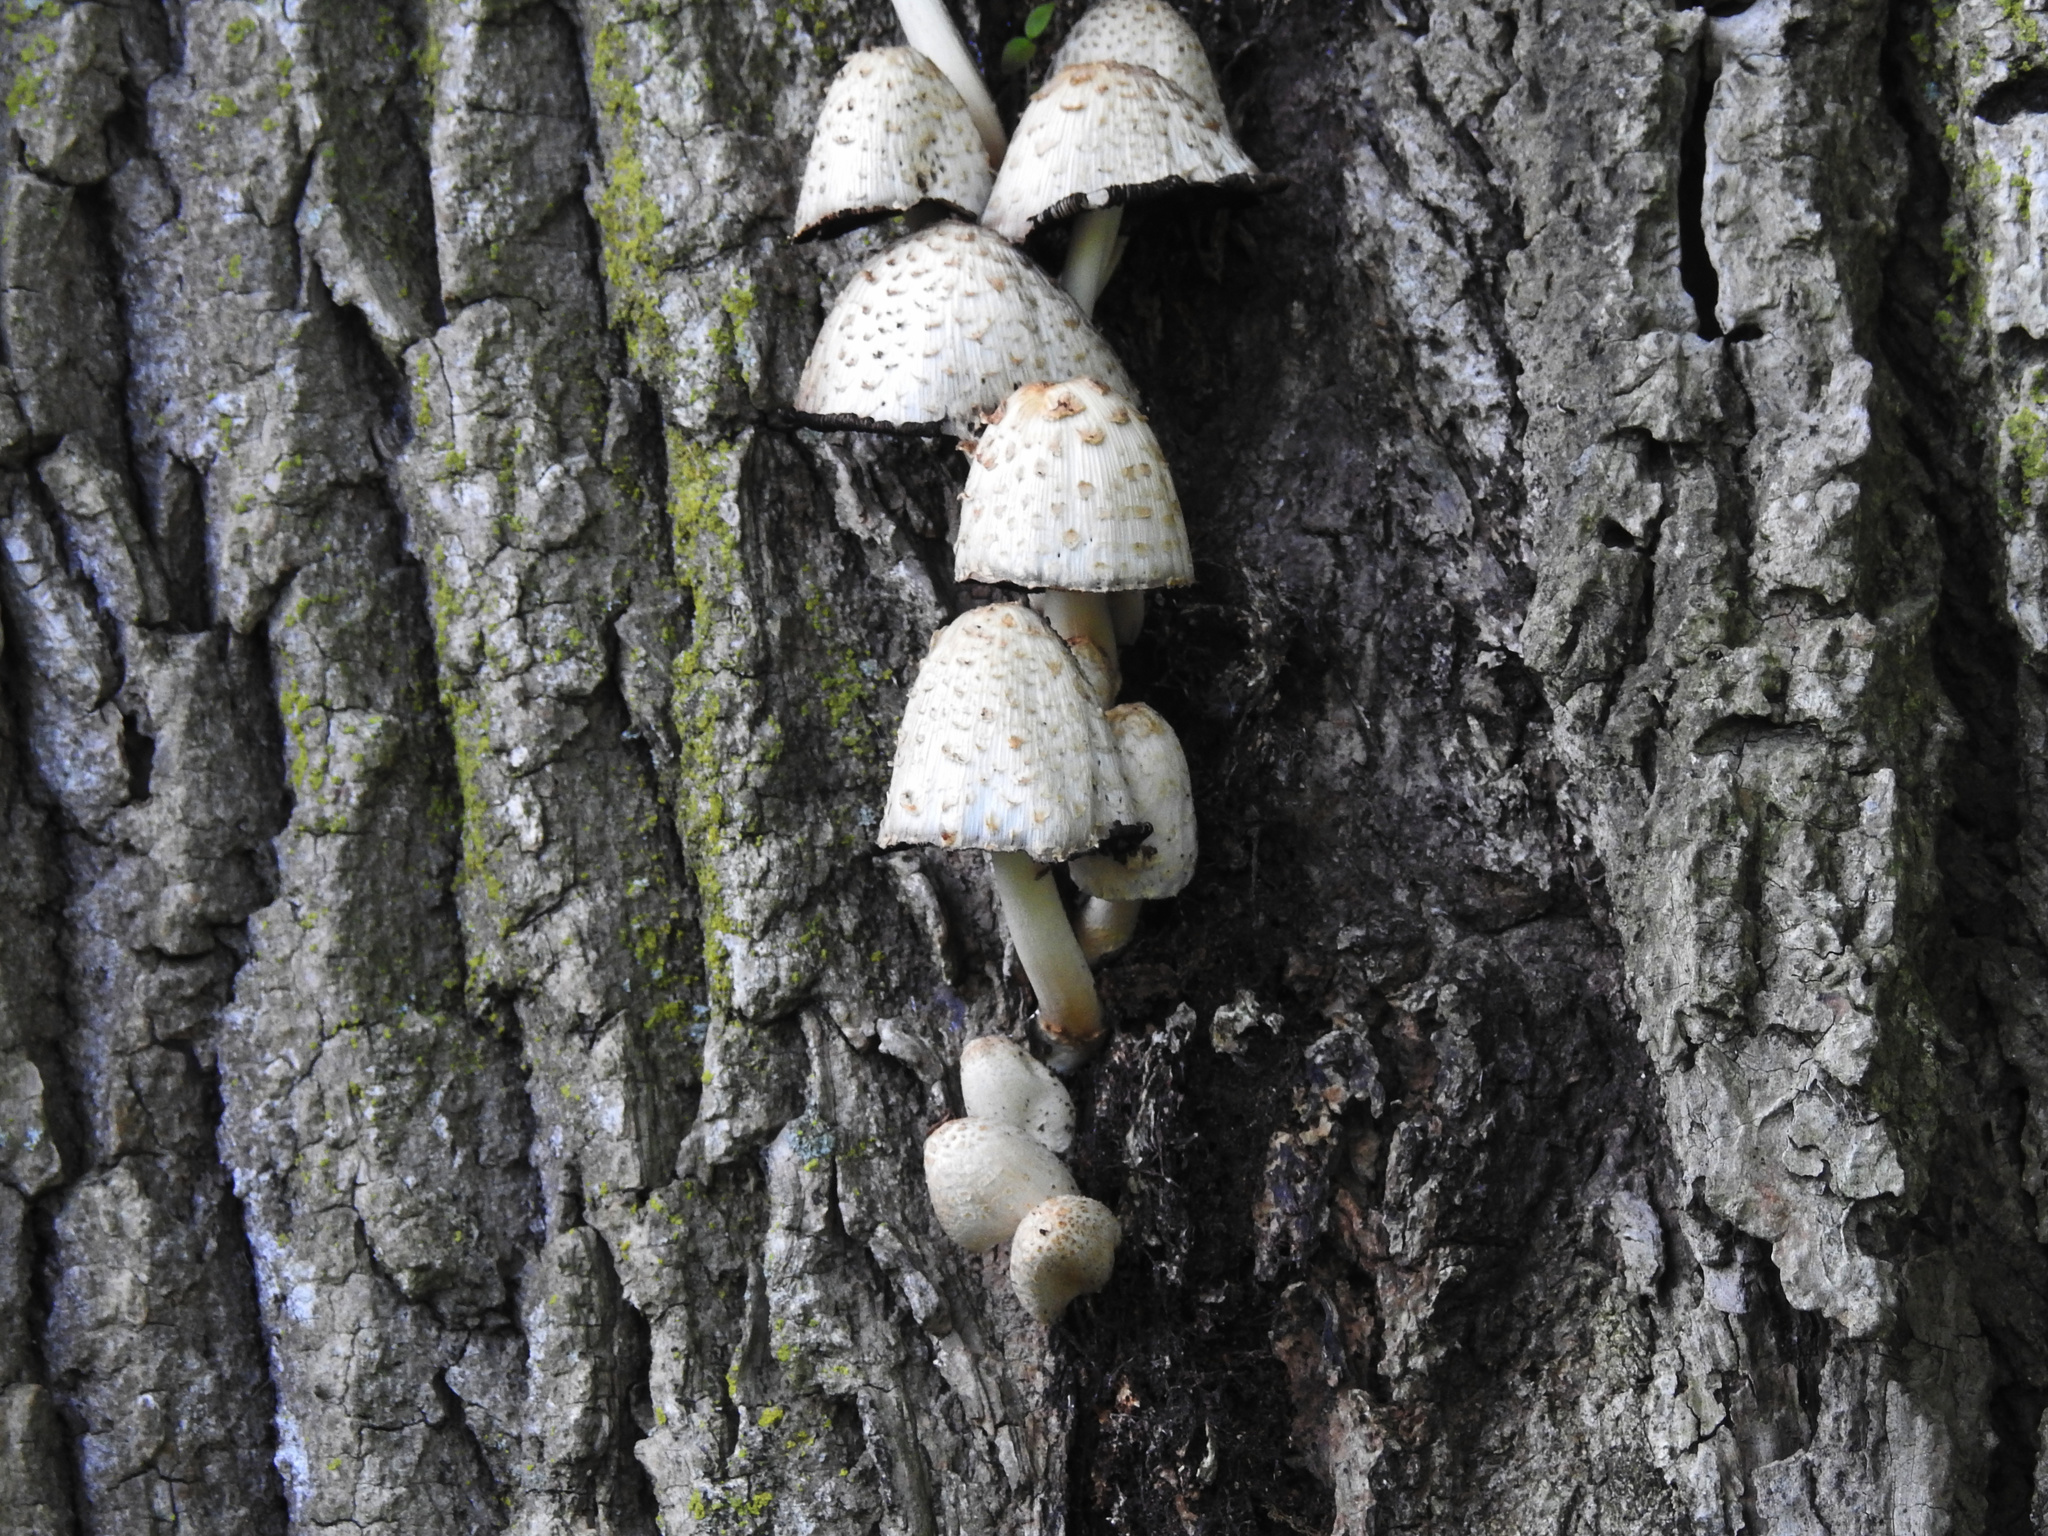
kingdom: Fungi
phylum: Basidiomycota
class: Agaricomycetes
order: Agaricales
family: Psathyrellaceae
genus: Coprinopsis
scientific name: Coprinopsis variegata
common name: Scaly ink cap
